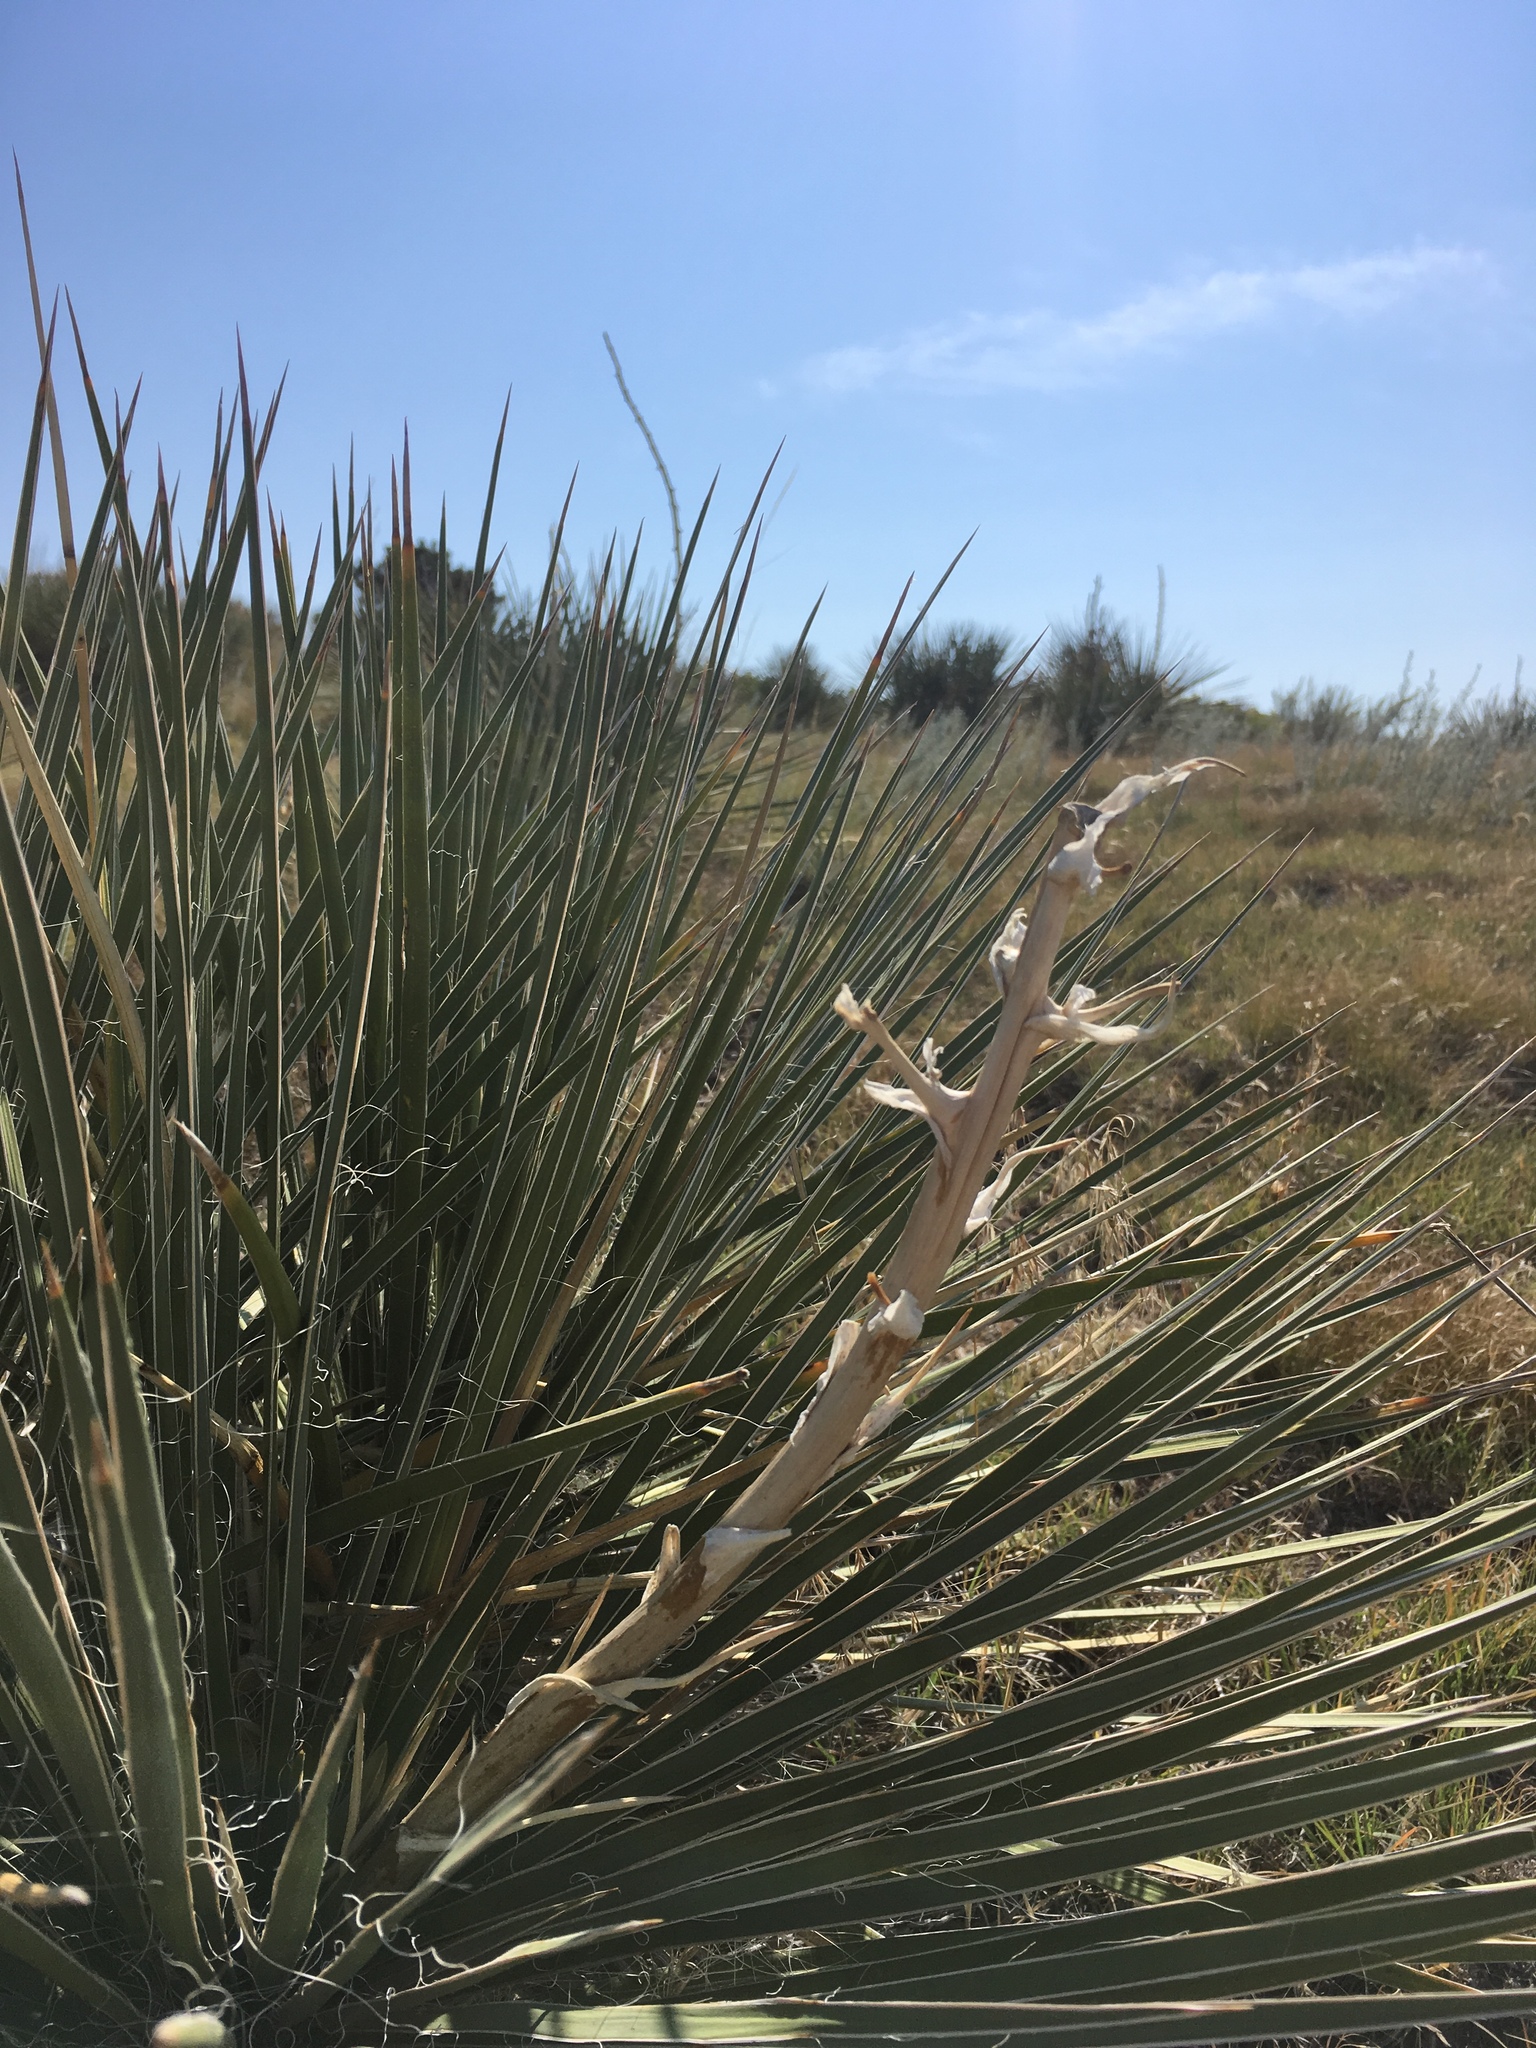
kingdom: Plantae
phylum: Tracheophyta
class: Liliopsida
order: Asparagales
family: Asparagaceae
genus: Yucca
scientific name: Yucca glauca
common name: Great plains yucca
